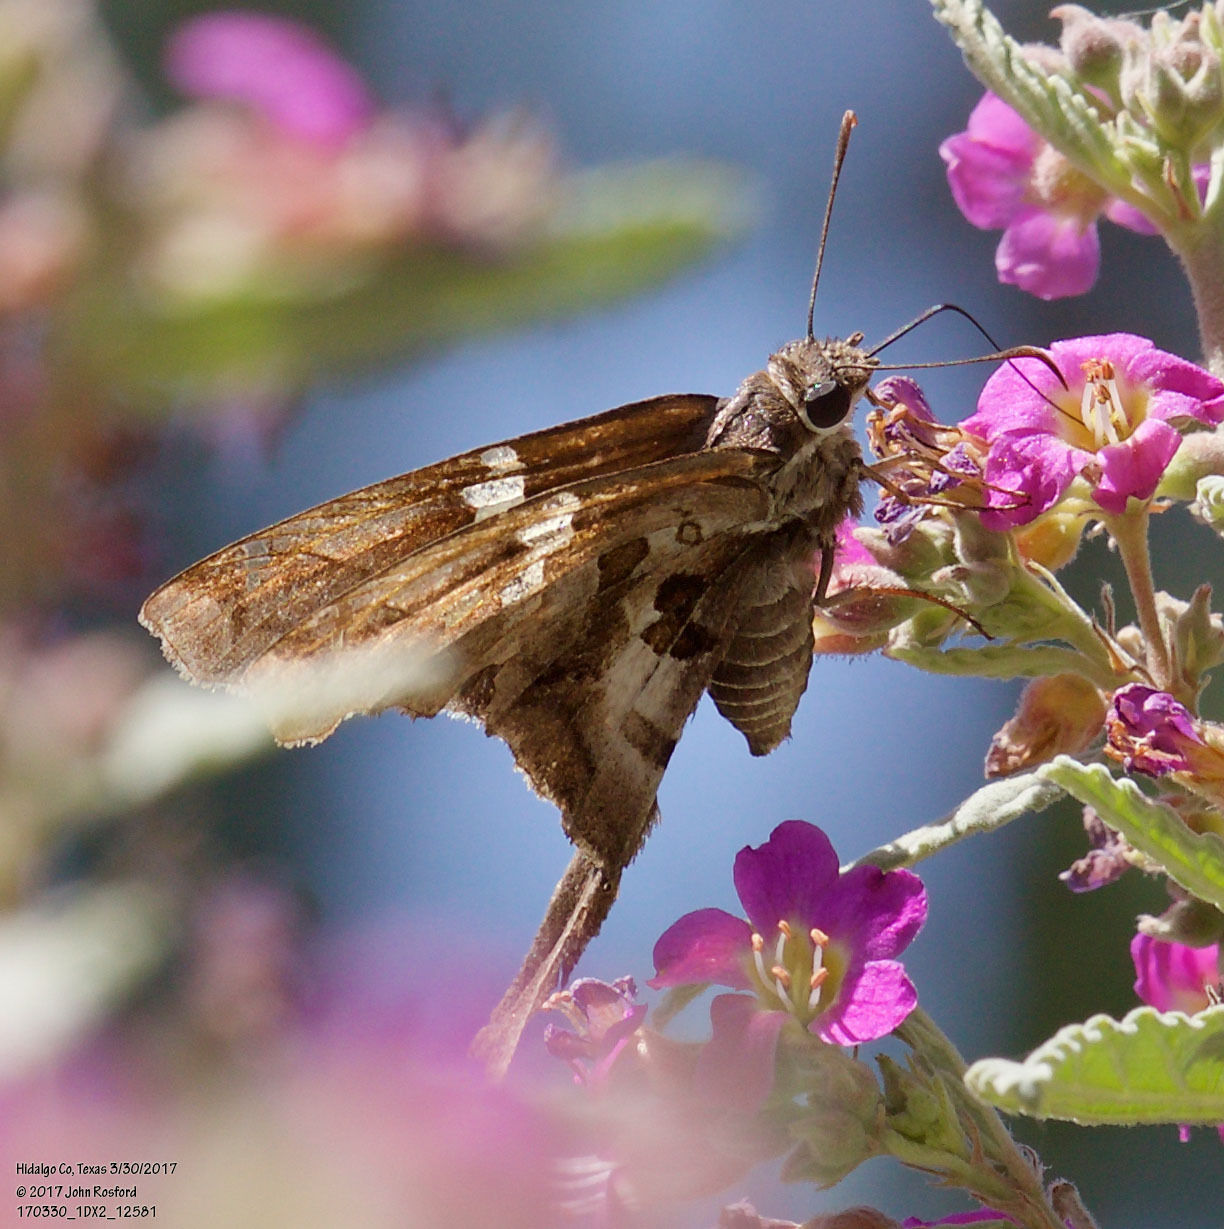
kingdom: Animalia
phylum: Arthropoda
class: Insecta
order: Lepidoptera
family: Hesperiidae
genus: Chioides
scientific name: Chioides zilpa
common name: Zilpa longtail
